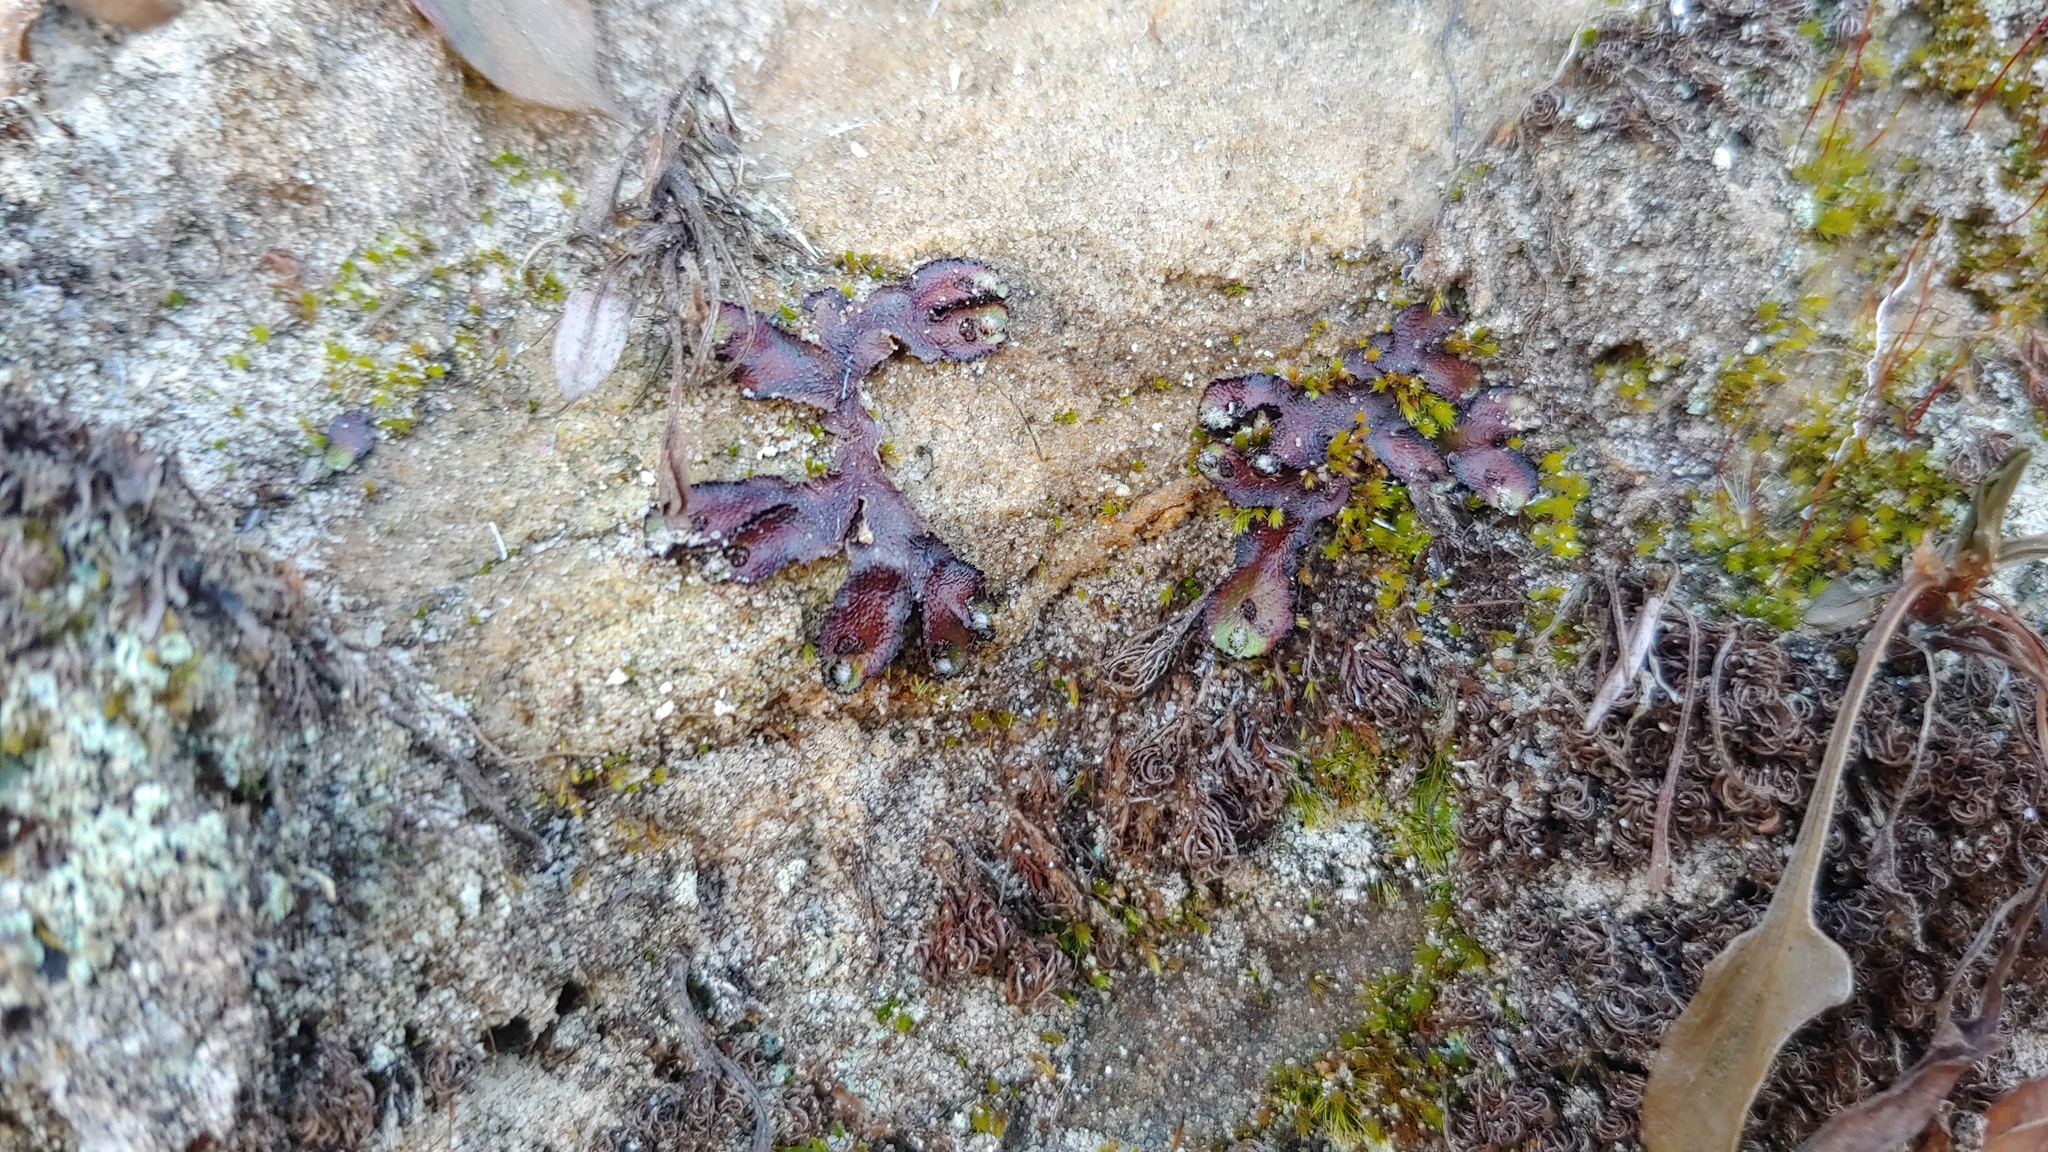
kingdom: Plantae
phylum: Marchantiophyta
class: Marchantiopsida
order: Marchantiales
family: Aytoniaceae
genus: Reboulia
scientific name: Reboulia hemisphaerica
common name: Purple-margined liverwort
